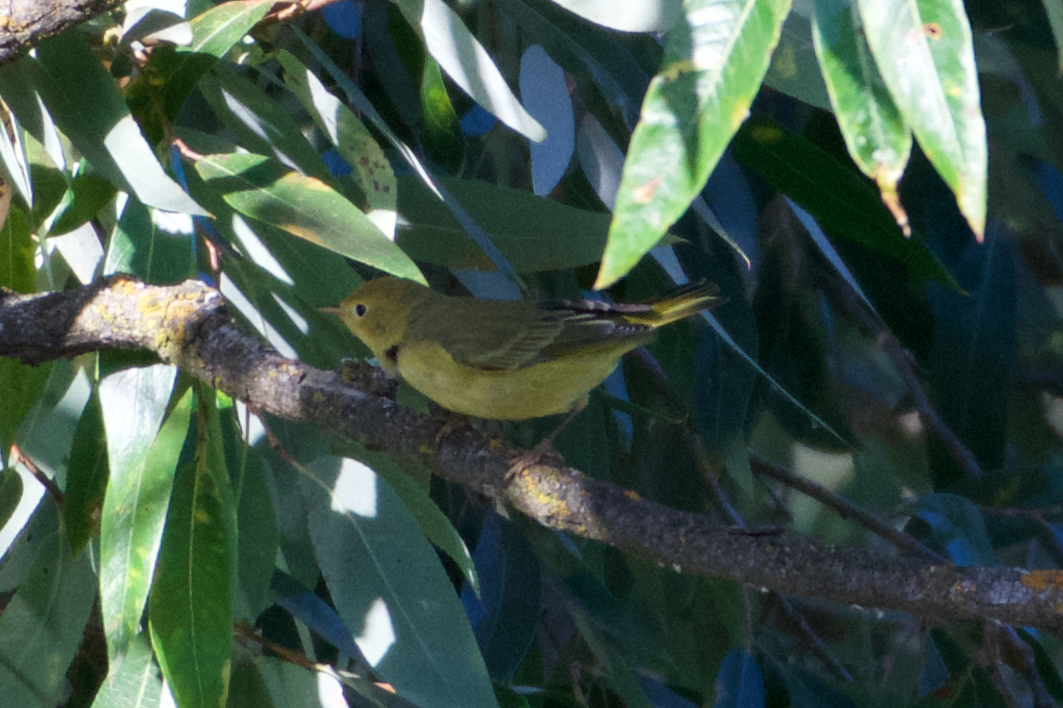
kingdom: Animalia
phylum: Chordata
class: Aves
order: Passeriformes
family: Parulidae
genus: Setophaga
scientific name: Setophaga petechia
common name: Yellow warbler
